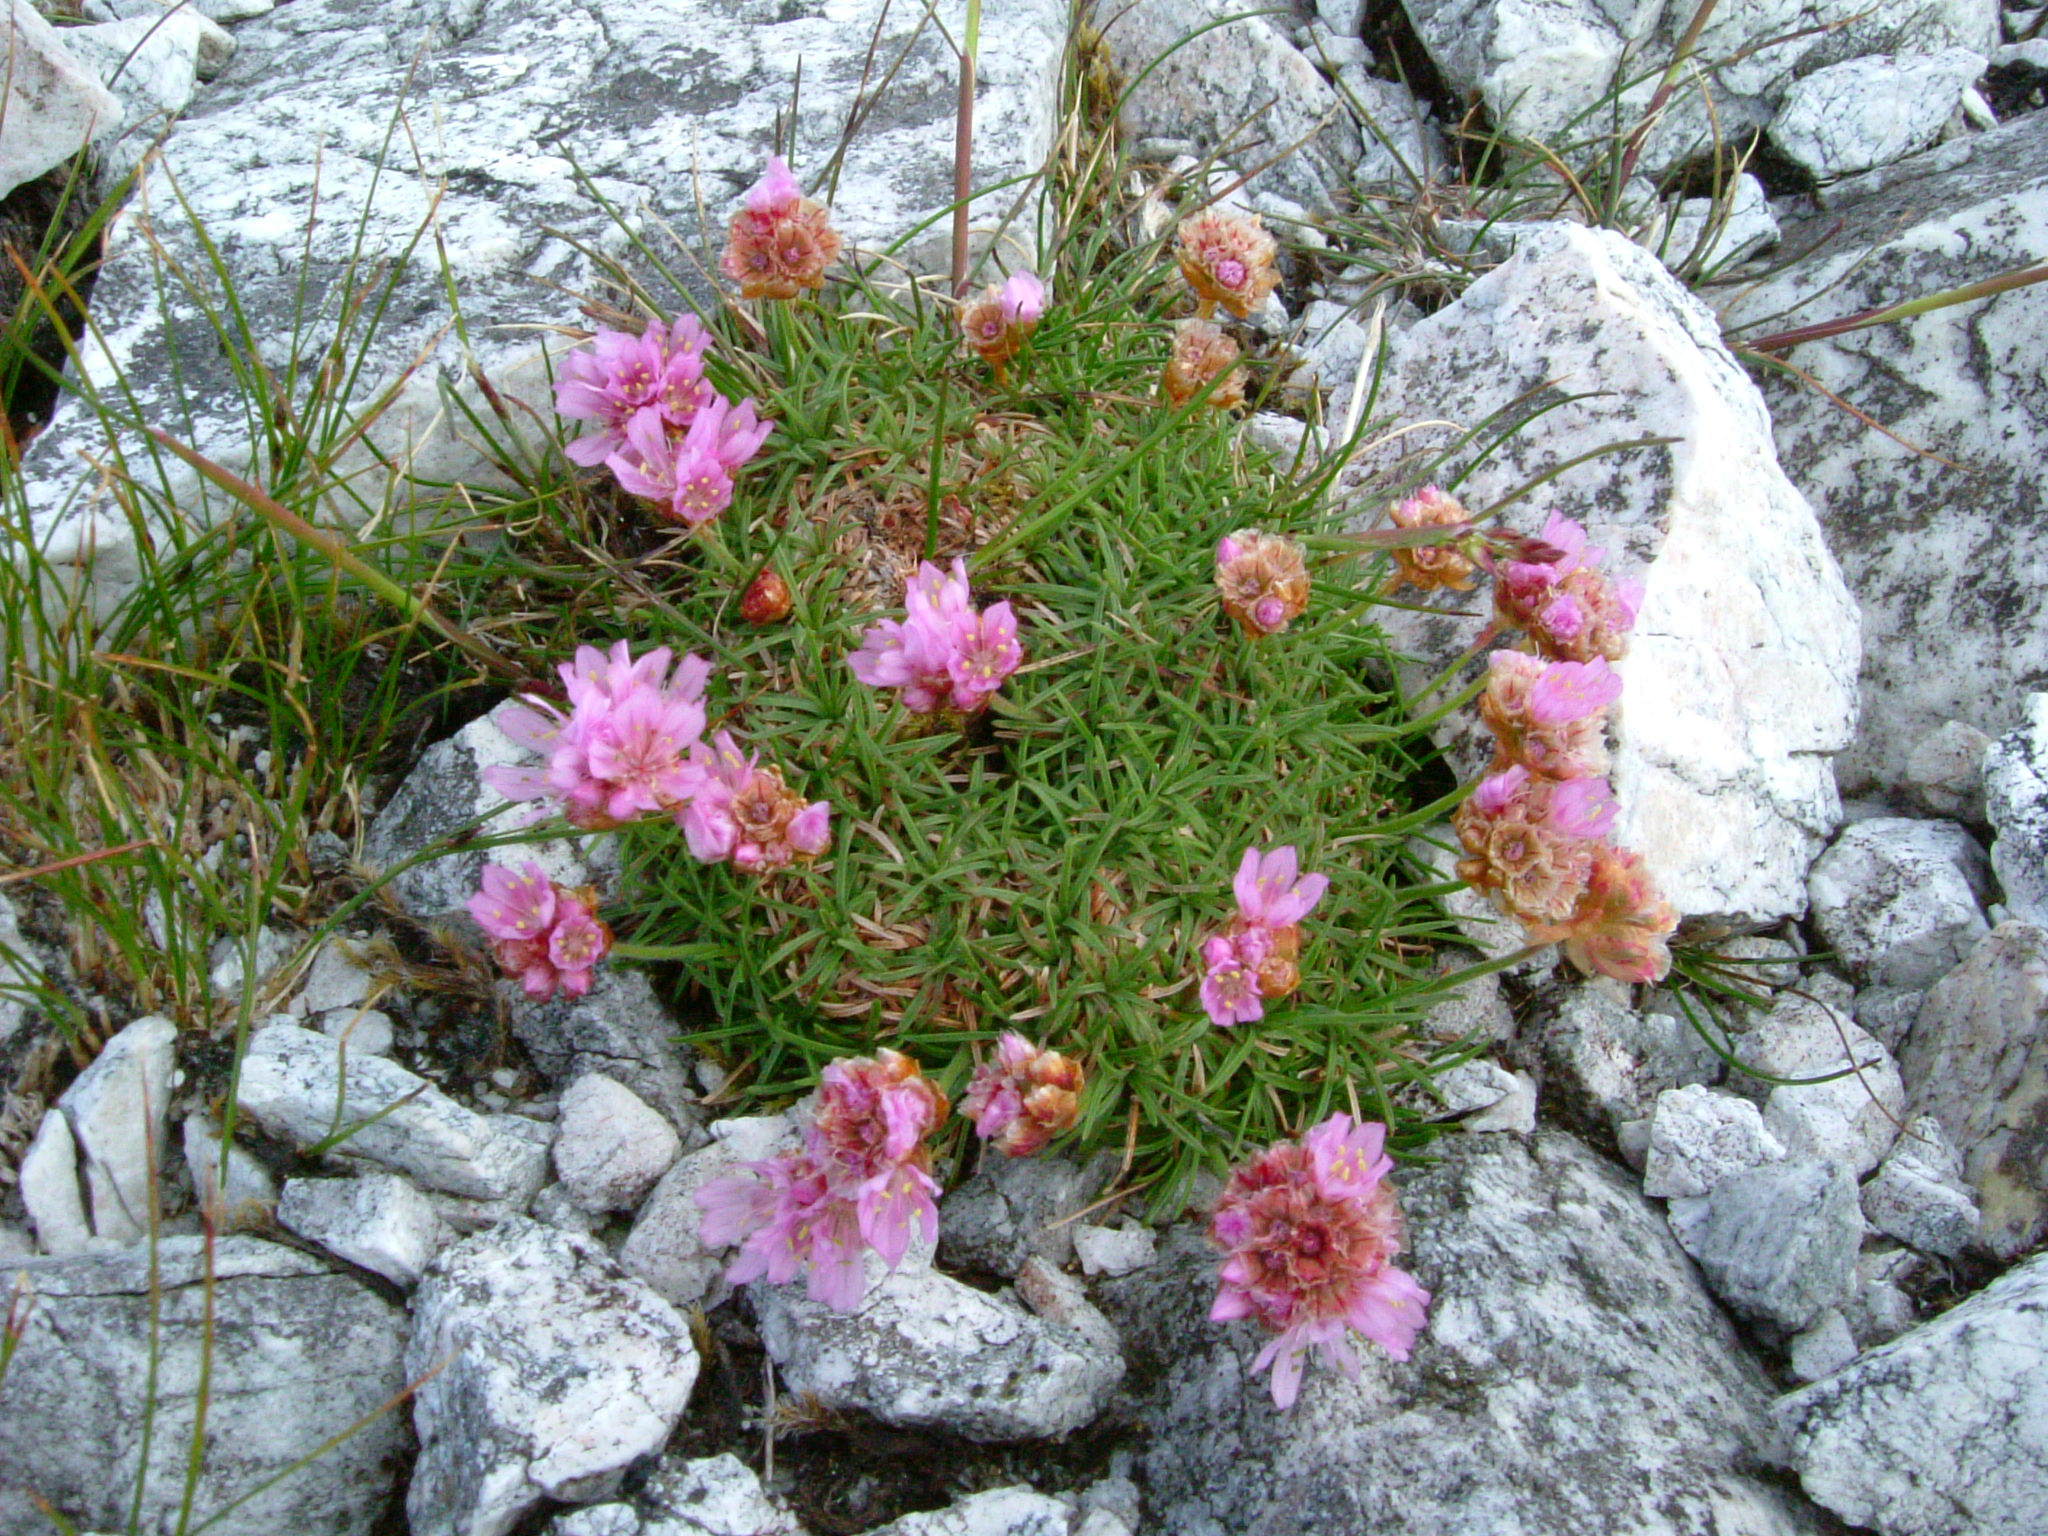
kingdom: Plantae
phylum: Tracheophyta
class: Magnoliopsida
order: Caryophyllales
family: Plumbaginaceae
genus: Armeria
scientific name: Armeria maritima
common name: Thrift
